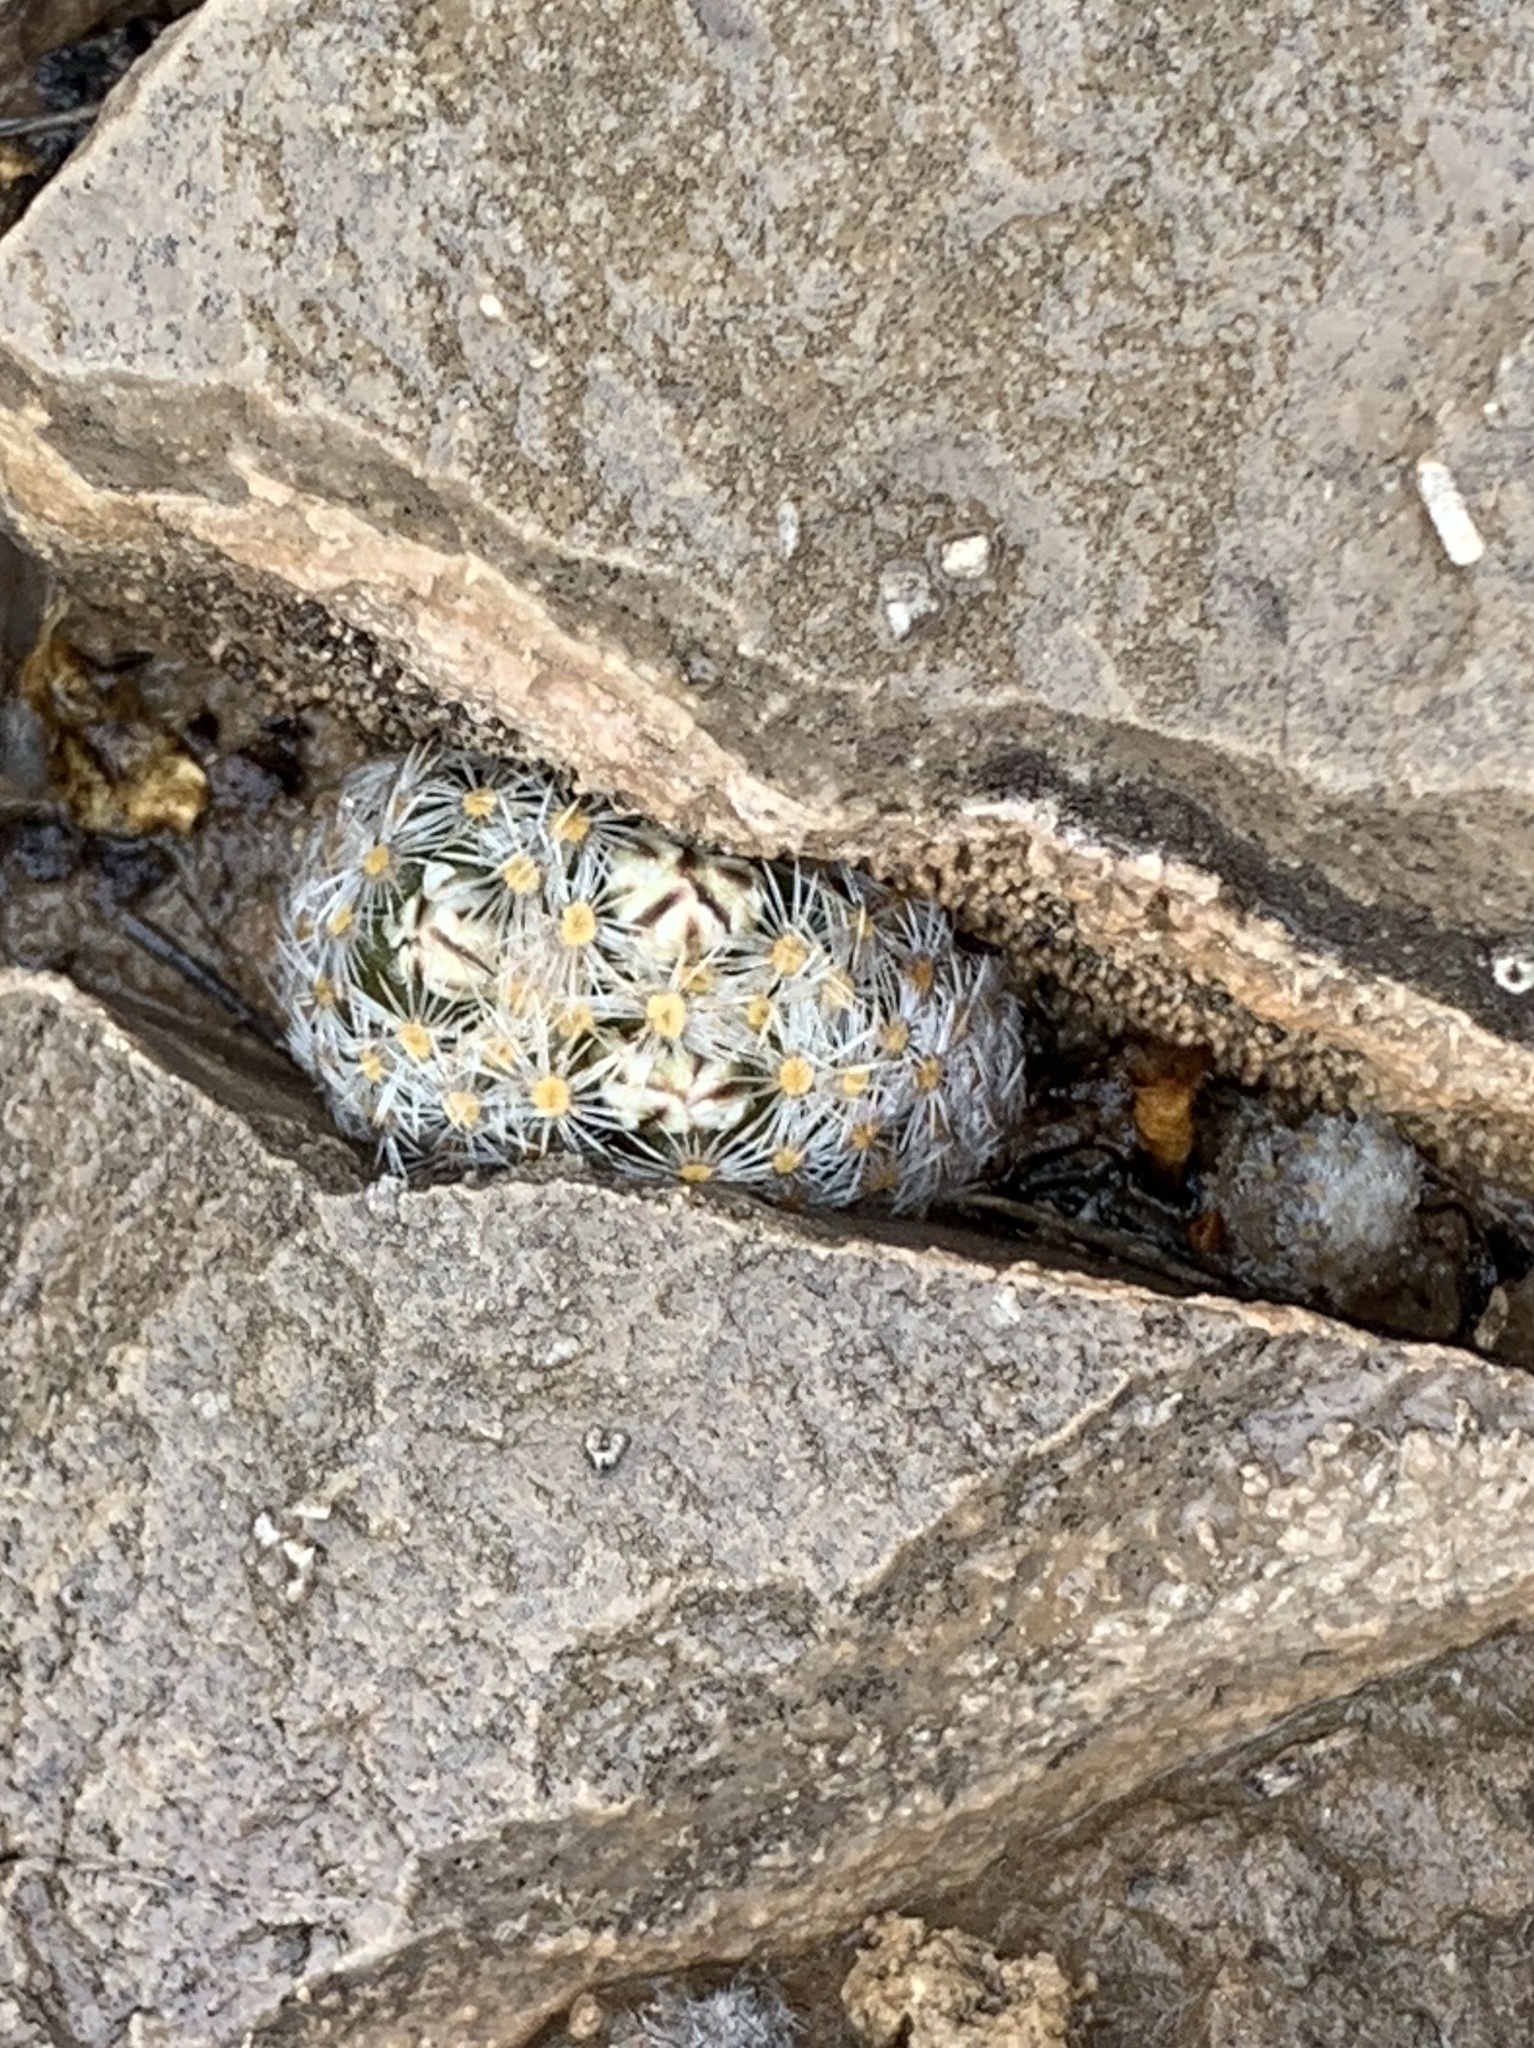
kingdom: Plantae
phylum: Tracheophyta
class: Magnoliopsida
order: Caryophyllales
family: Cactaceae
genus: Mammillaria
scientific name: Mammillaria lasiacantha
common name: Lace-spine nipple cactus
